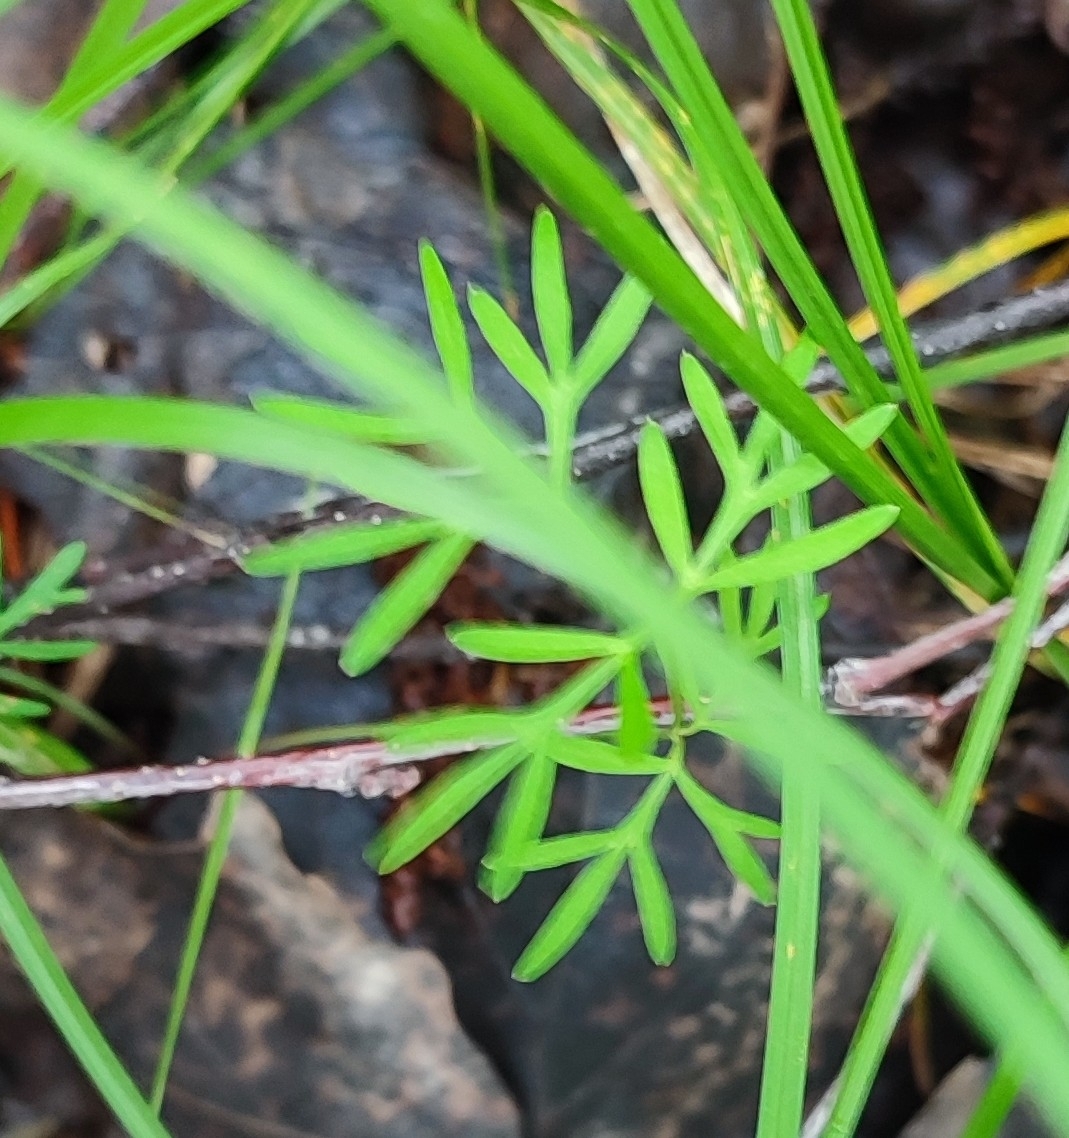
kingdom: Plantae
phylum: Tracheophyta
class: Magnoliopsida
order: Apiales
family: Apiaceae
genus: Kadenia
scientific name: Kadenia dubia
